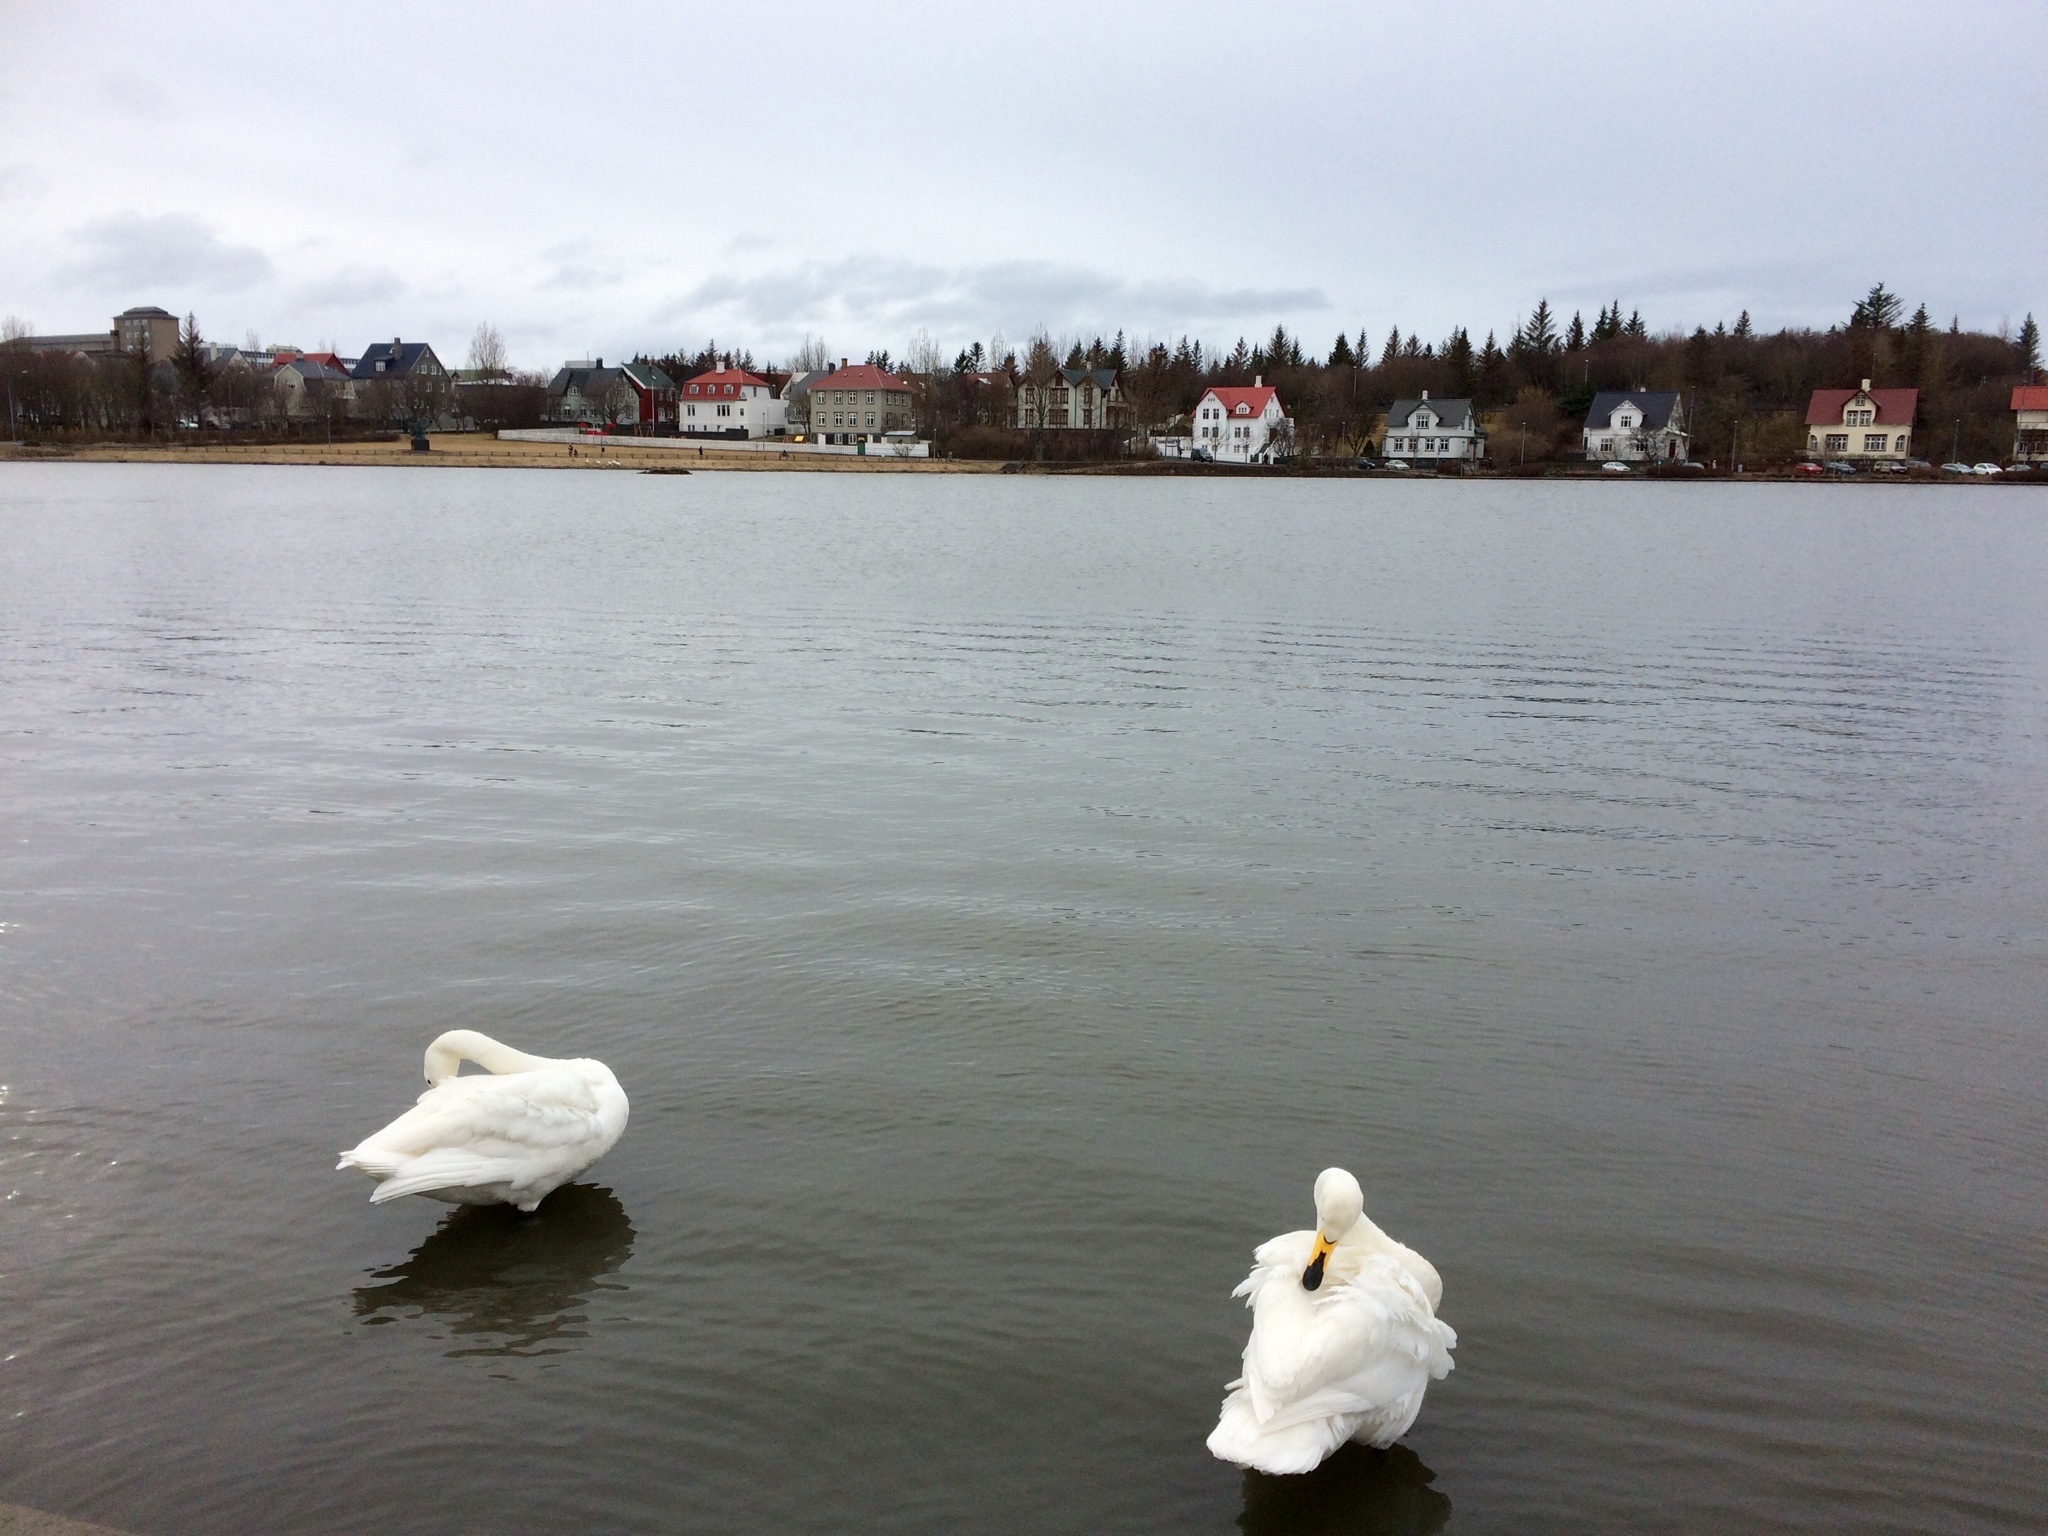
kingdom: Animalia
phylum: Chordata
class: Aves
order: Anseriformes
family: Anatidae
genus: Cygnus
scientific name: Cygnus cygnus
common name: Whooper swan
